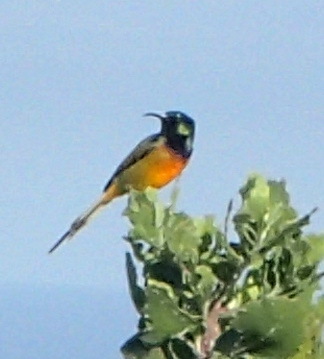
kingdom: Animalia
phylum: Chordata
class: Aves
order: Passeriformes
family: Nectariniidae
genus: Anthobaphes
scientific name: Anthobaphes violacea
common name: Orange-breasted sunbird
